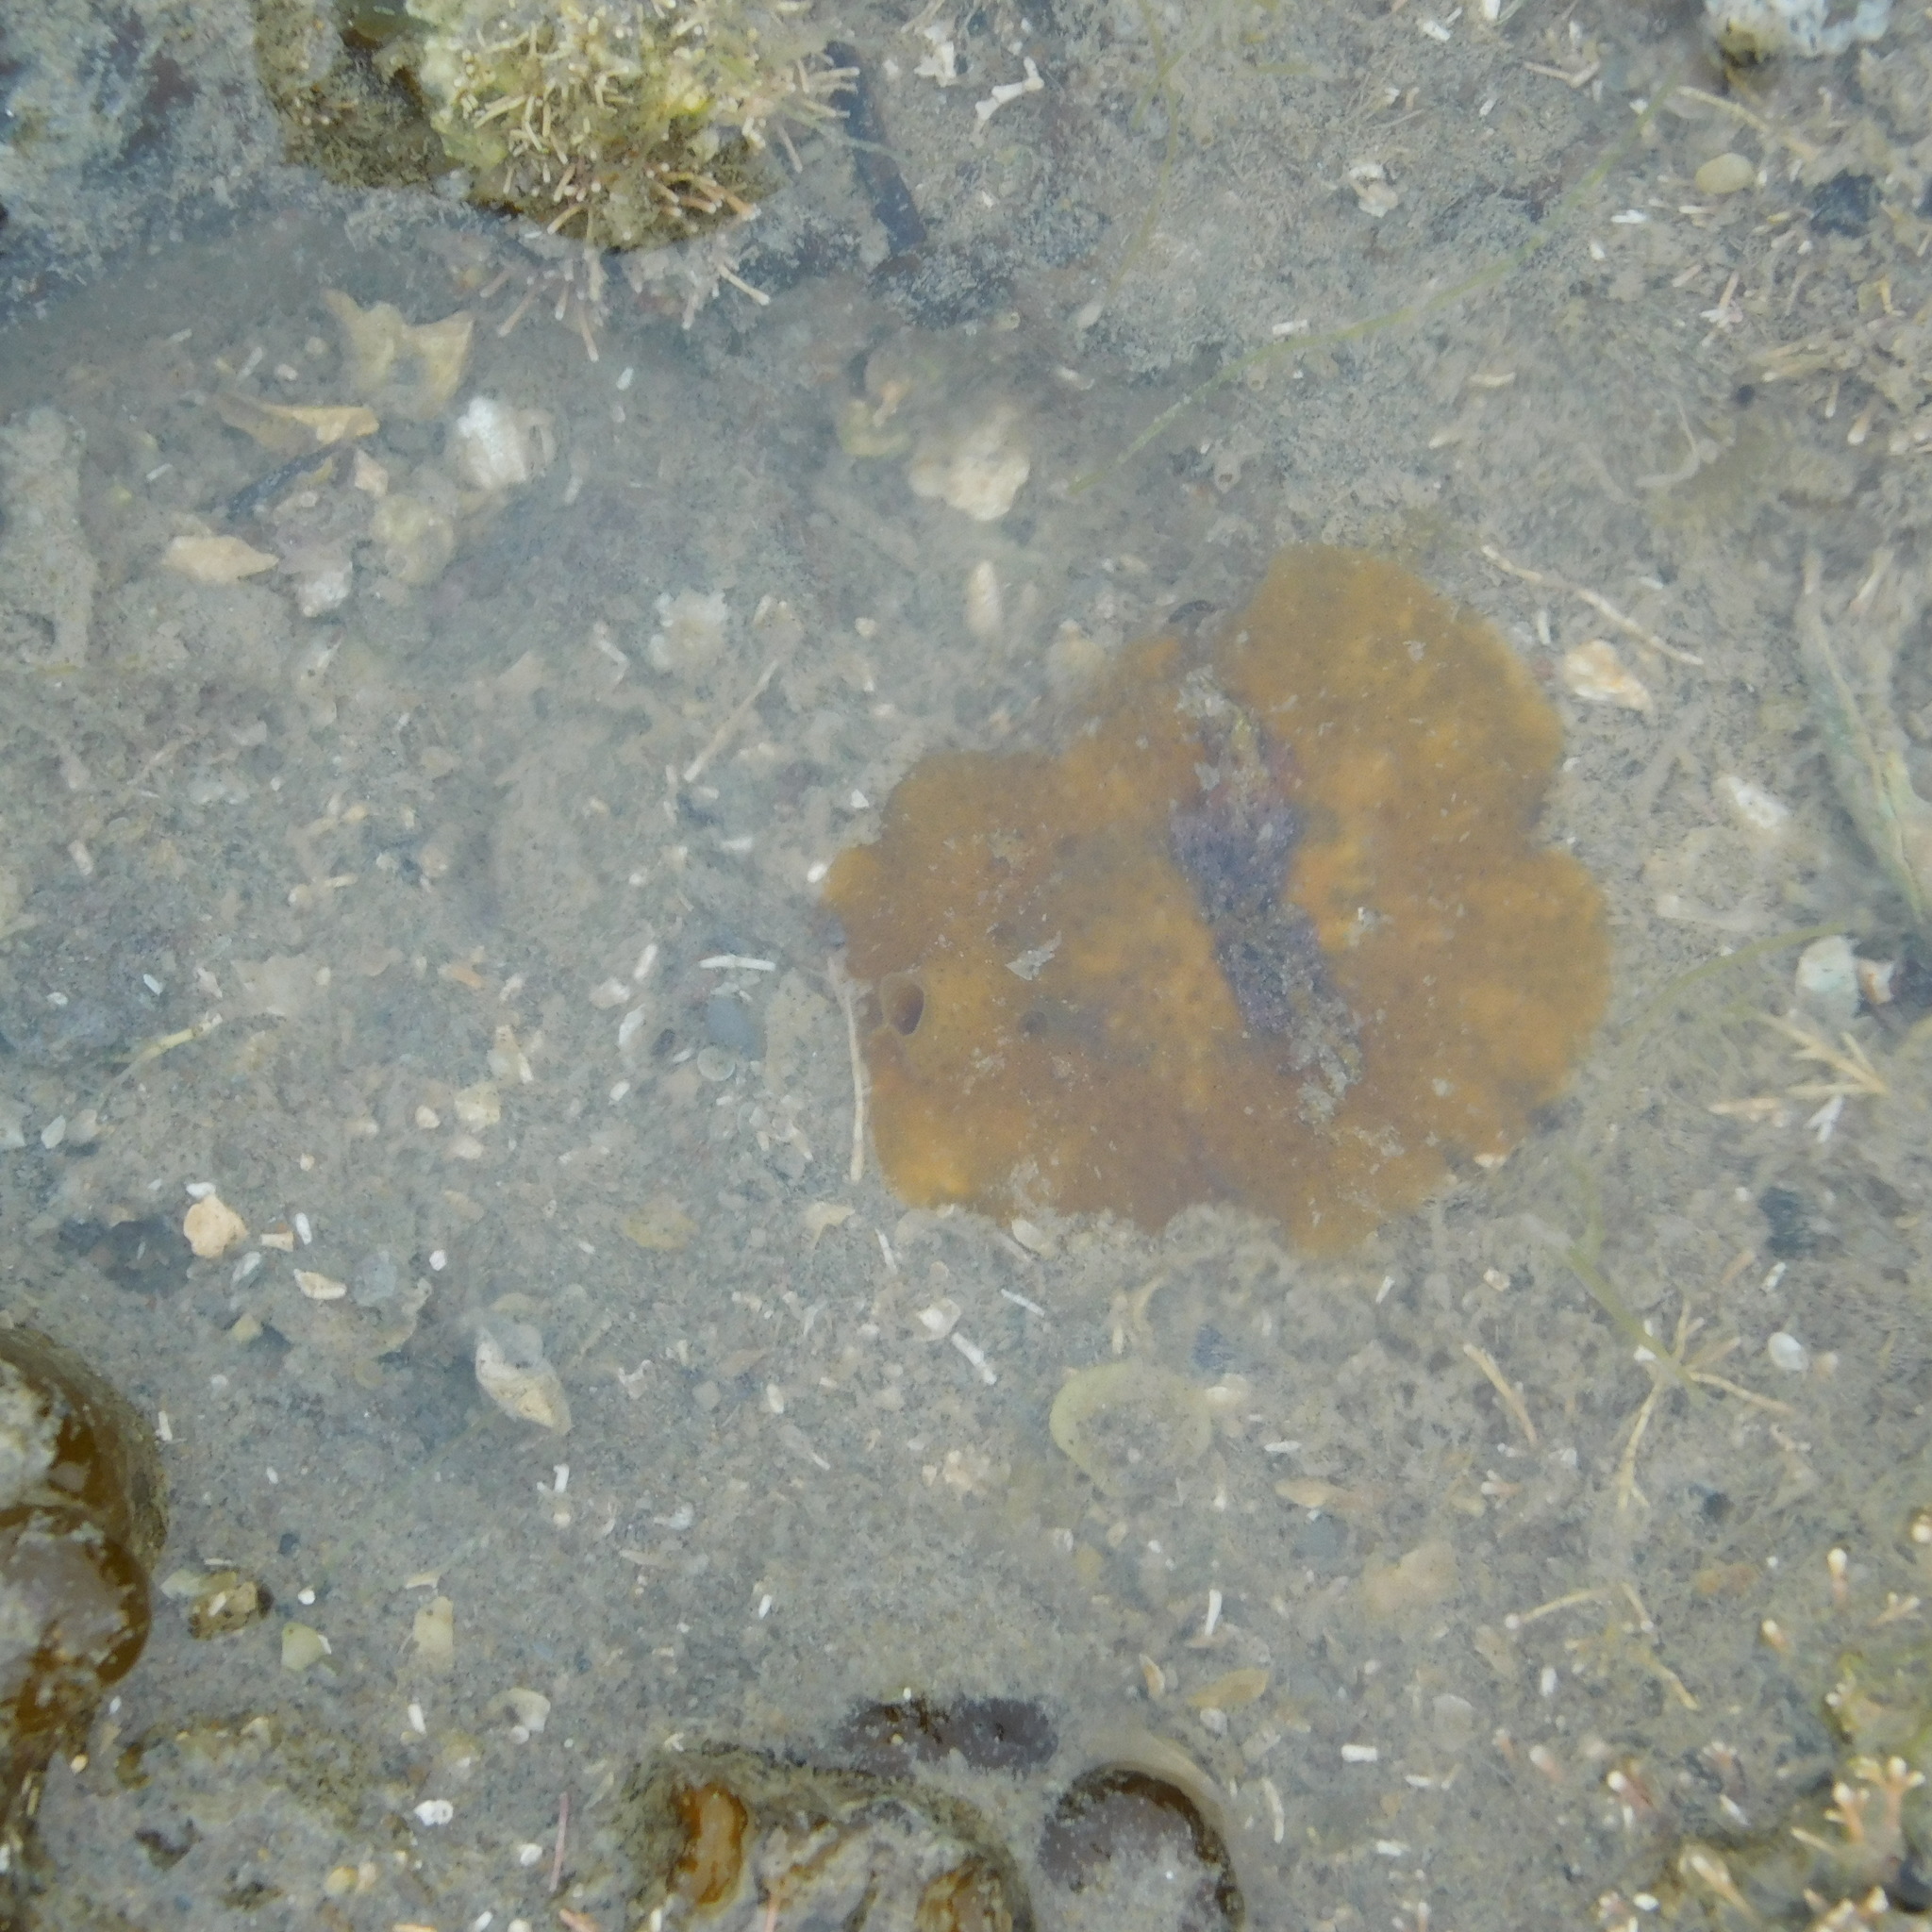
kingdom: Animalia
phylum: Mollusca
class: Gastropoda
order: Littorinimorpha
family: Velutinidae
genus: Lamellaria
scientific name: Lamellaria ophione
